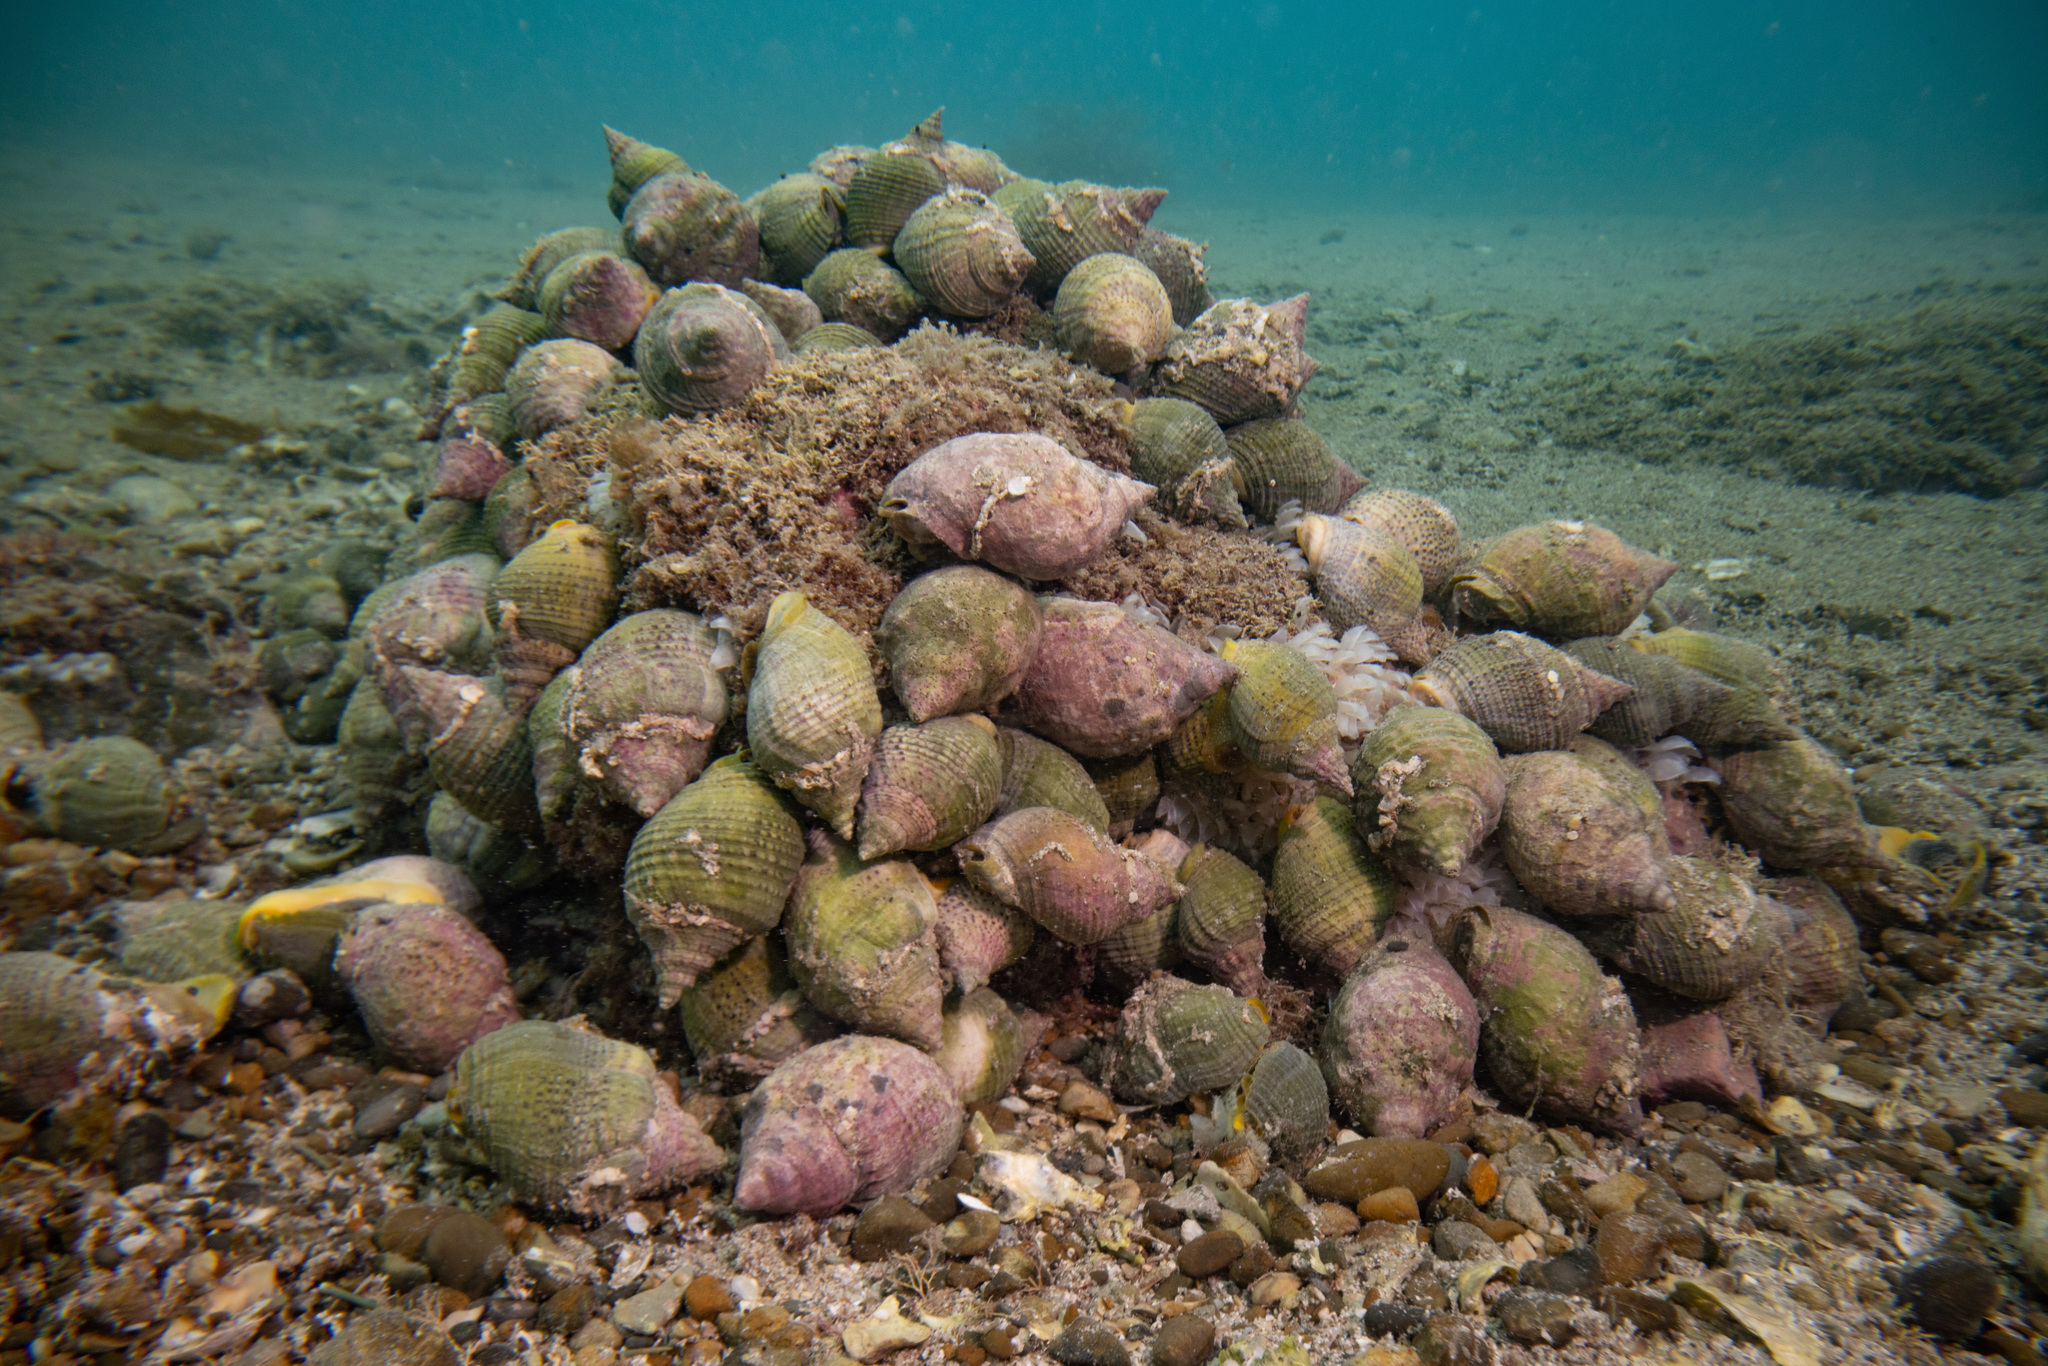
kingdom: Animalia
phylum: Mollusca
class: Gastropoda
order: Neogastropoda
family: Cominellidae
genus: Cominella
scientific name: Cominella adspersa
